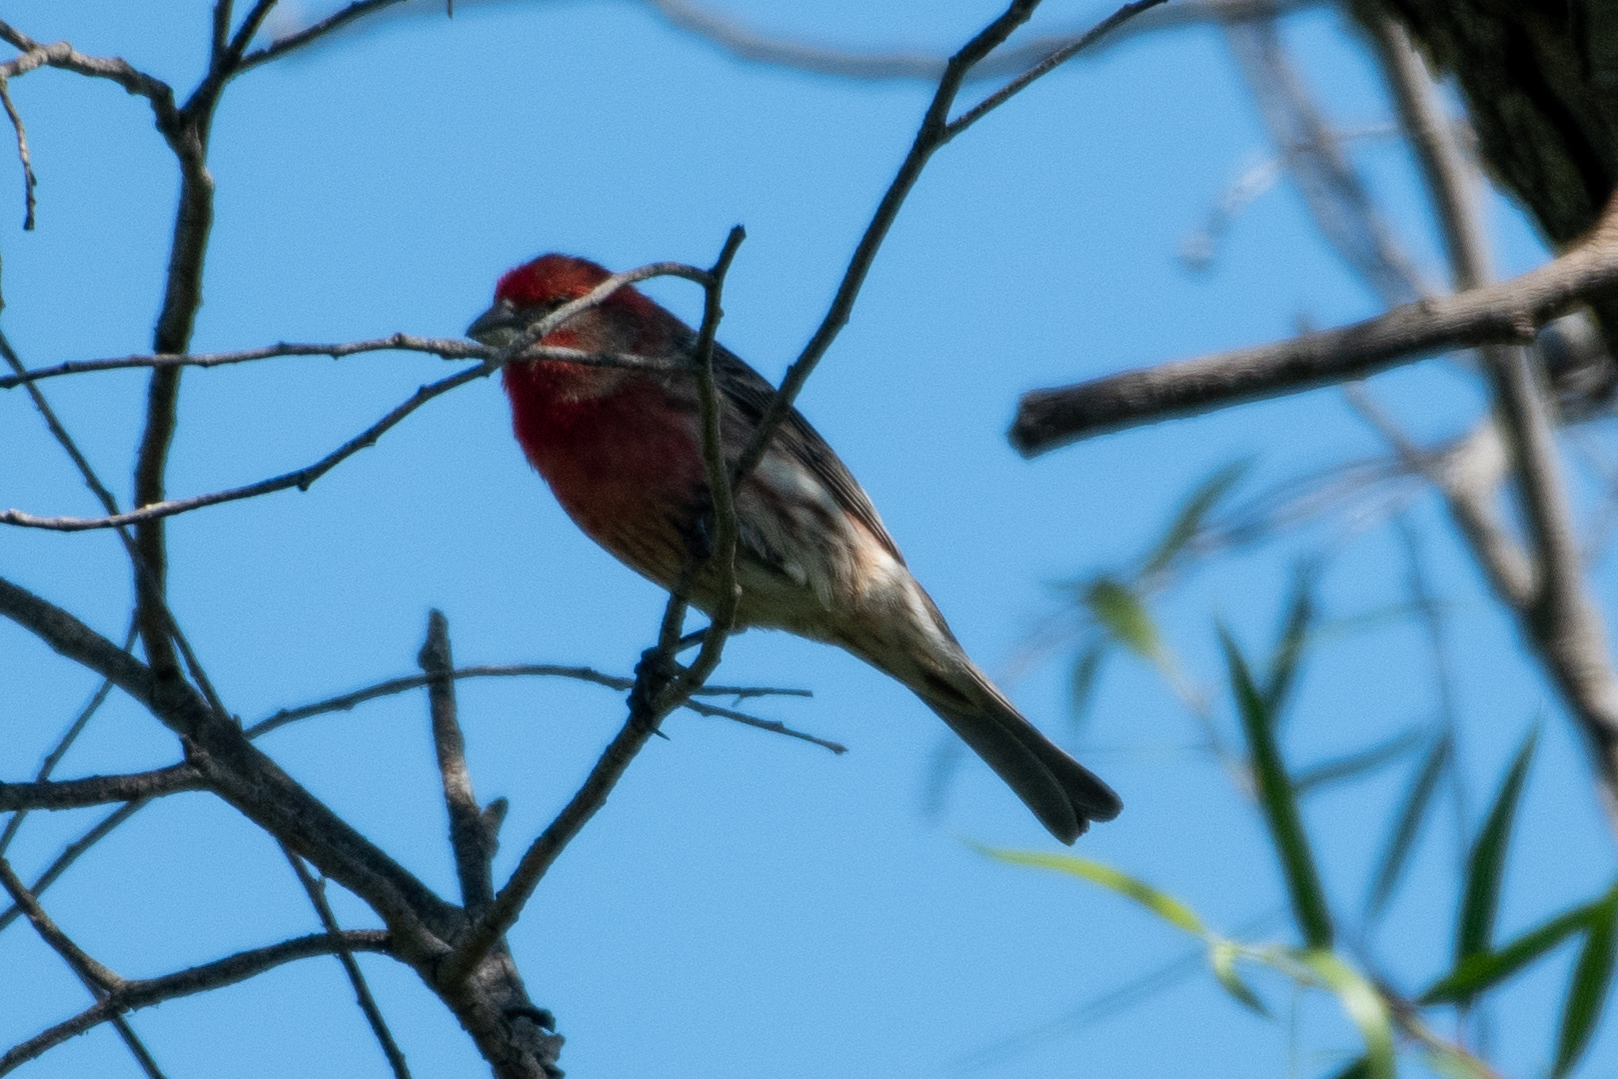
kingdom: Animalia
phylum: Chordata
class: Aves
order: Passeriformes
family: Fringillidae
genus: Haemorhous
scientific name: Haemorhous mexicanus
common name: House finch
